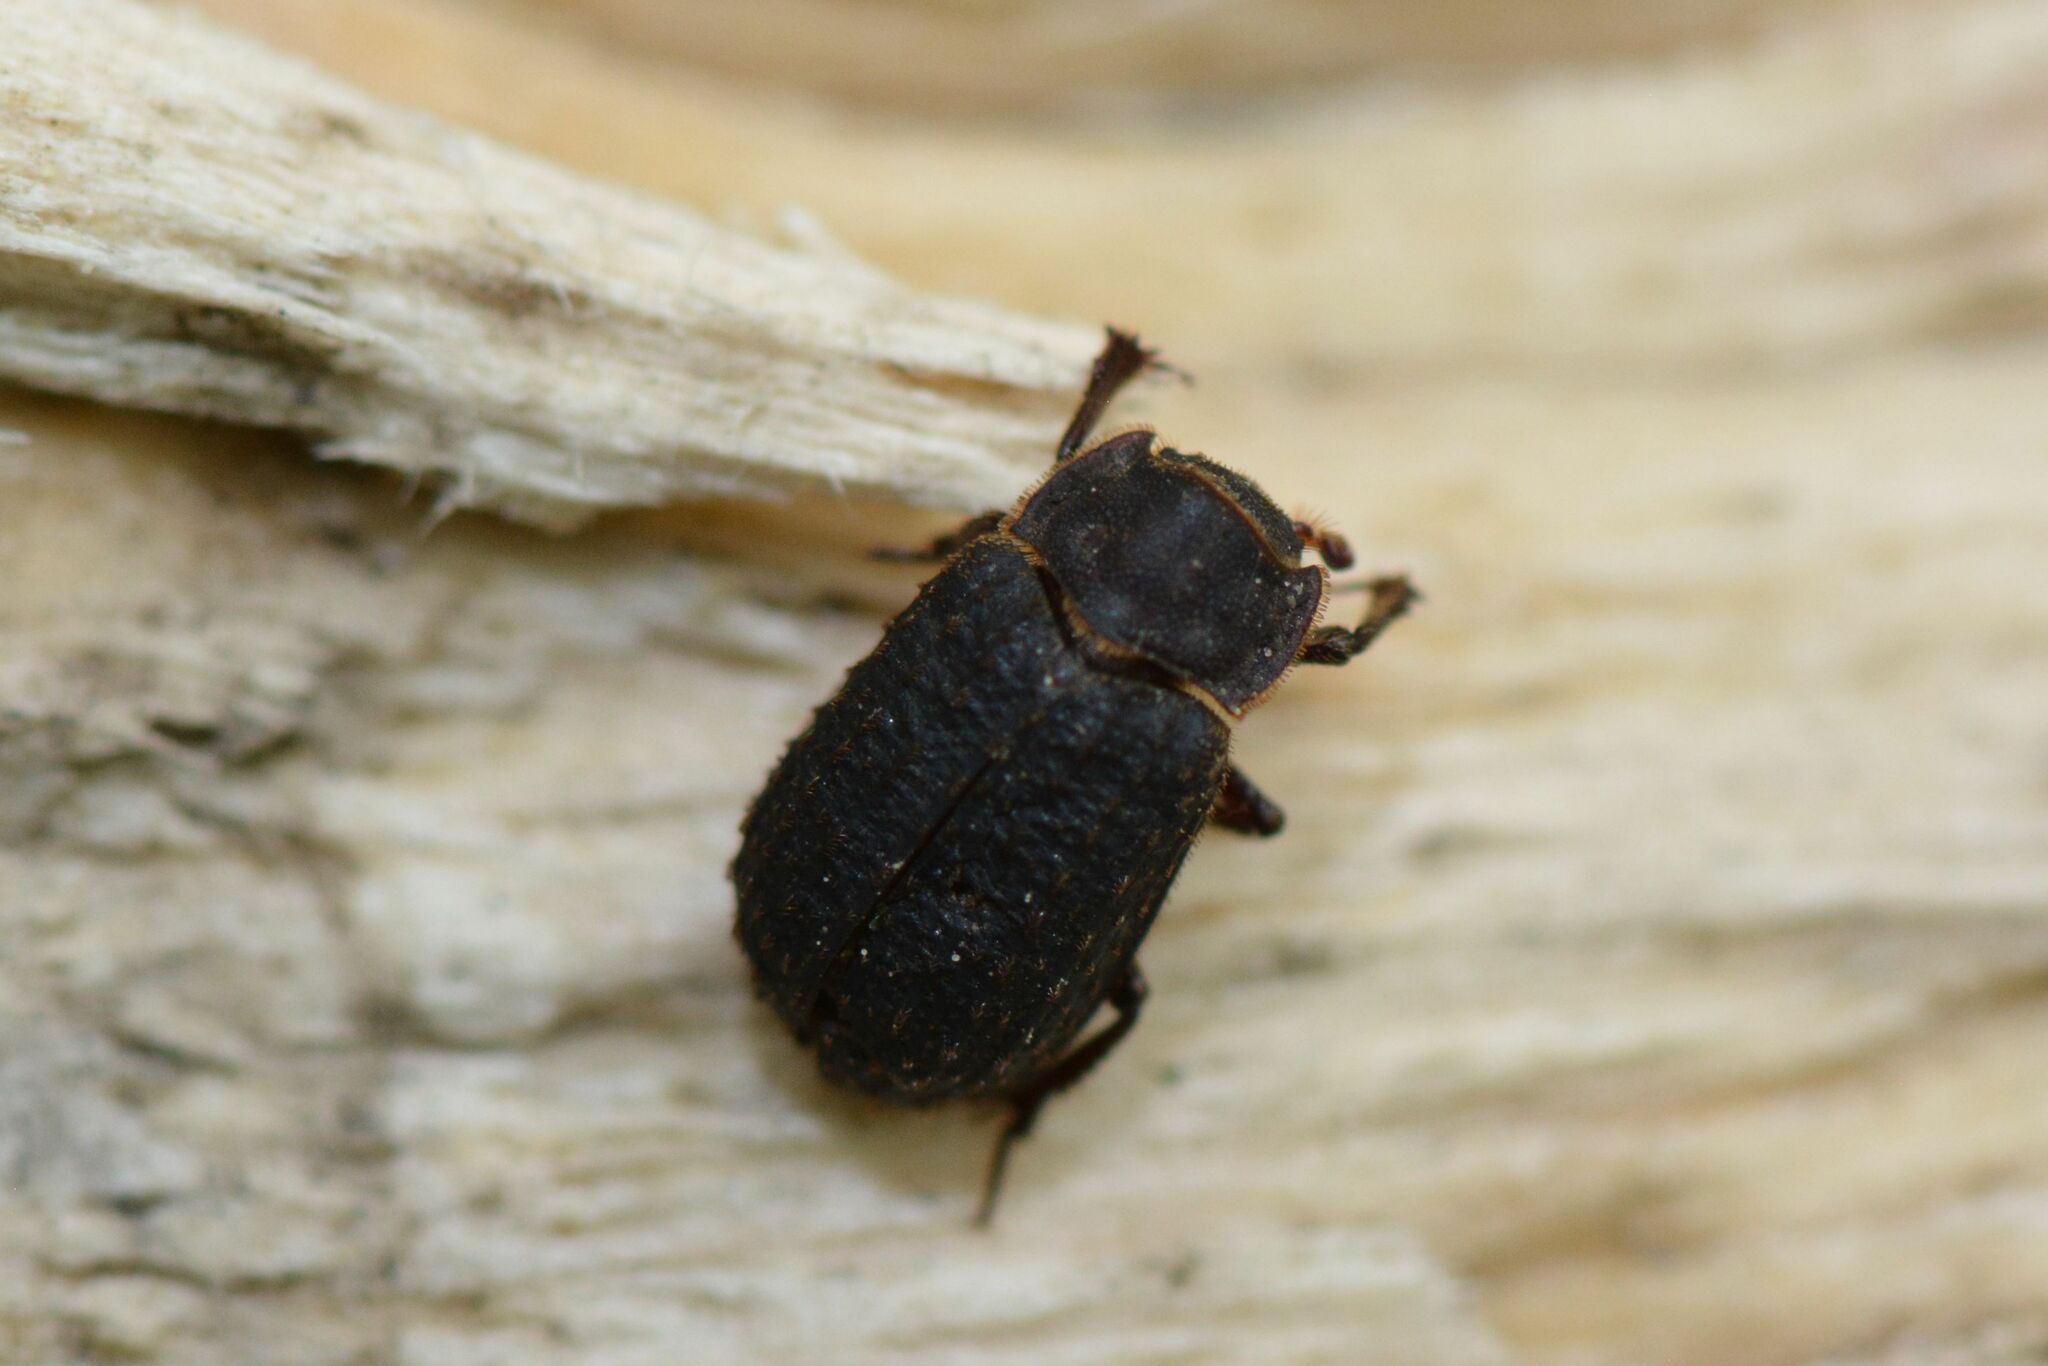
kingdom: Animalia
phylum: Arthropoda
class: Insecta
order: Coleoptera
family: Trogidae
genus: Trox
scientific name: Trox scaber
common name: Hide beetle
